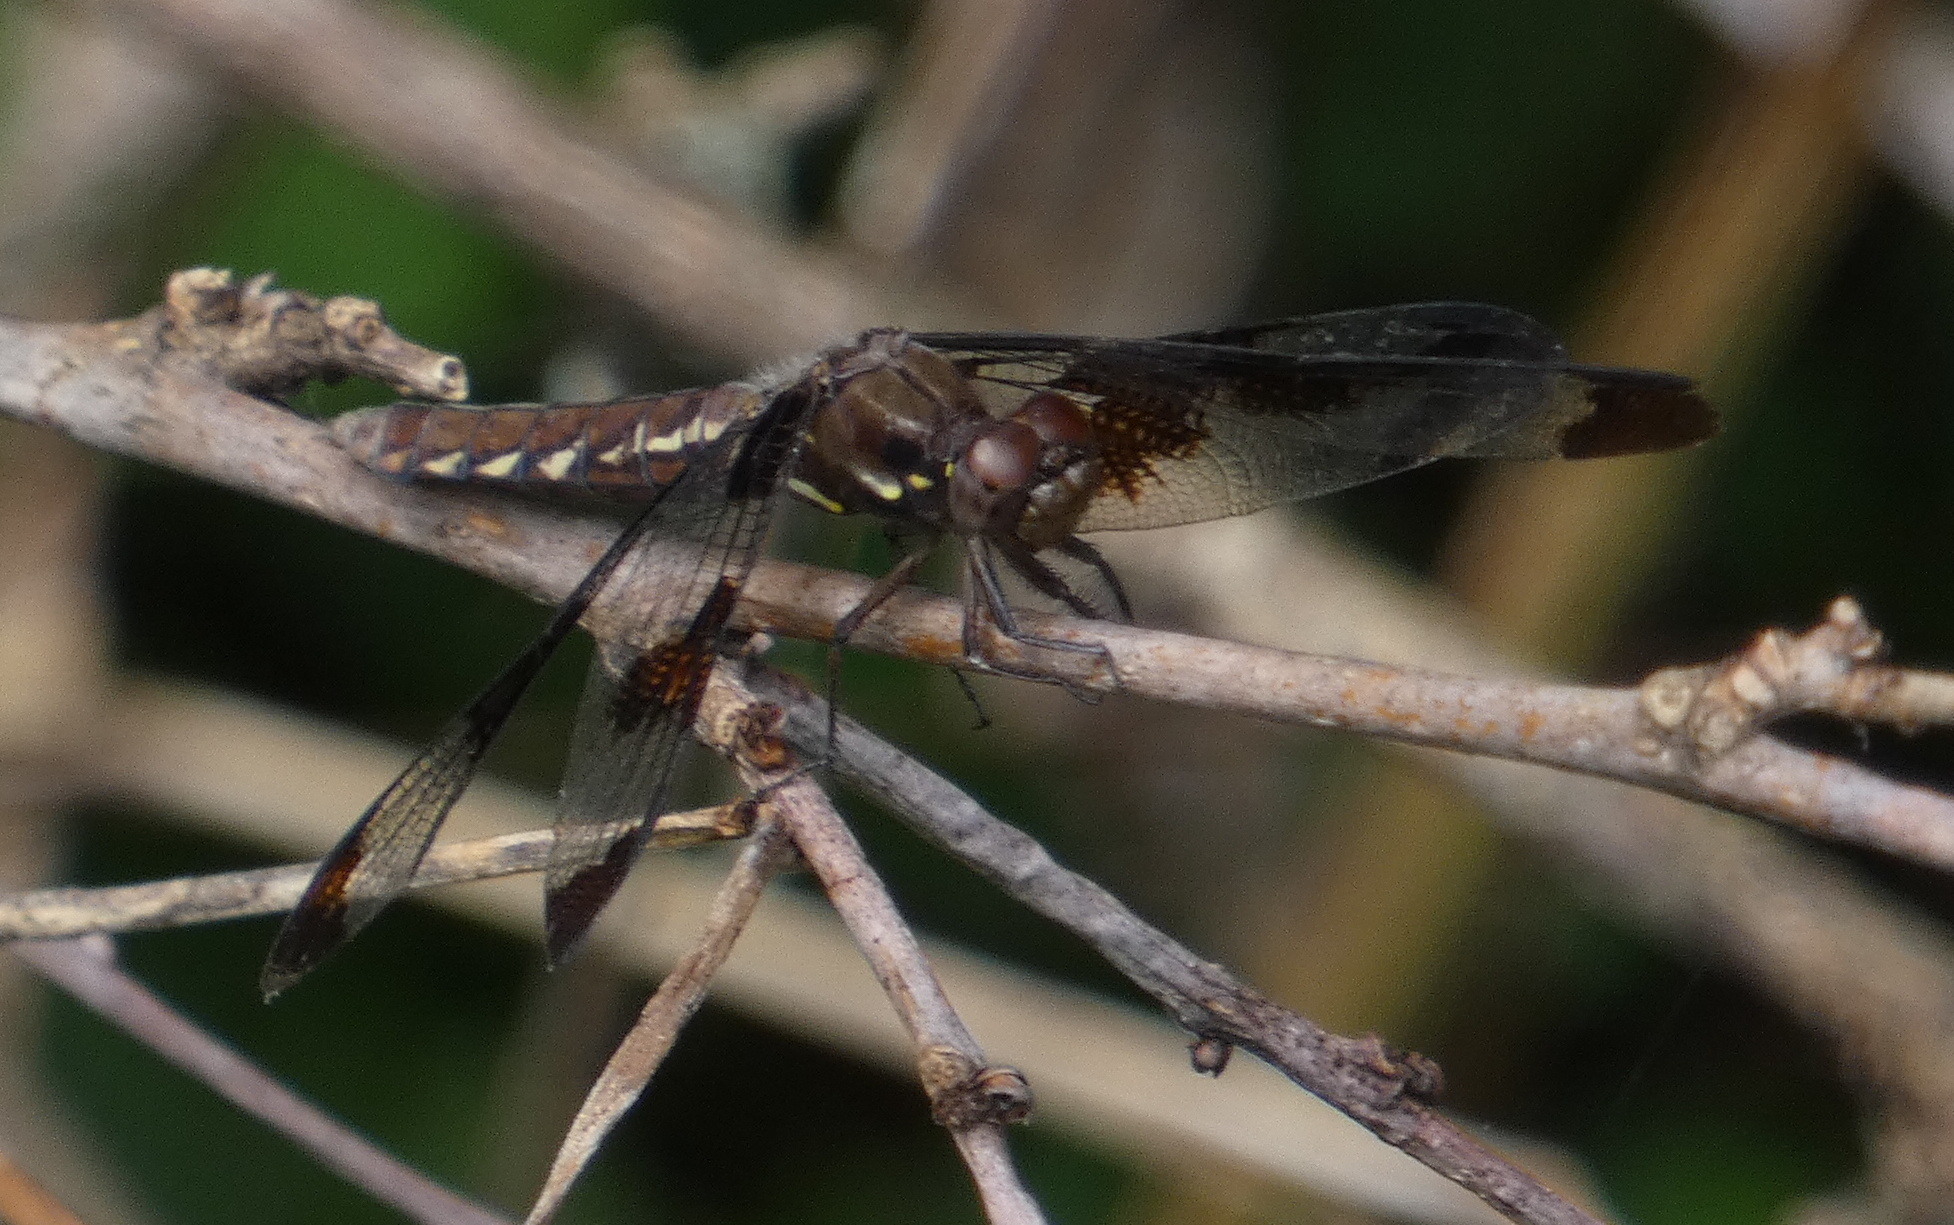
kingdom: Animalia
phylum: Arthropoda
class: Insecta
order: Odonata
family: Libellulidae
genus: Plathemis
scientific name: Plathemis lydia
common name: Common whitetail
